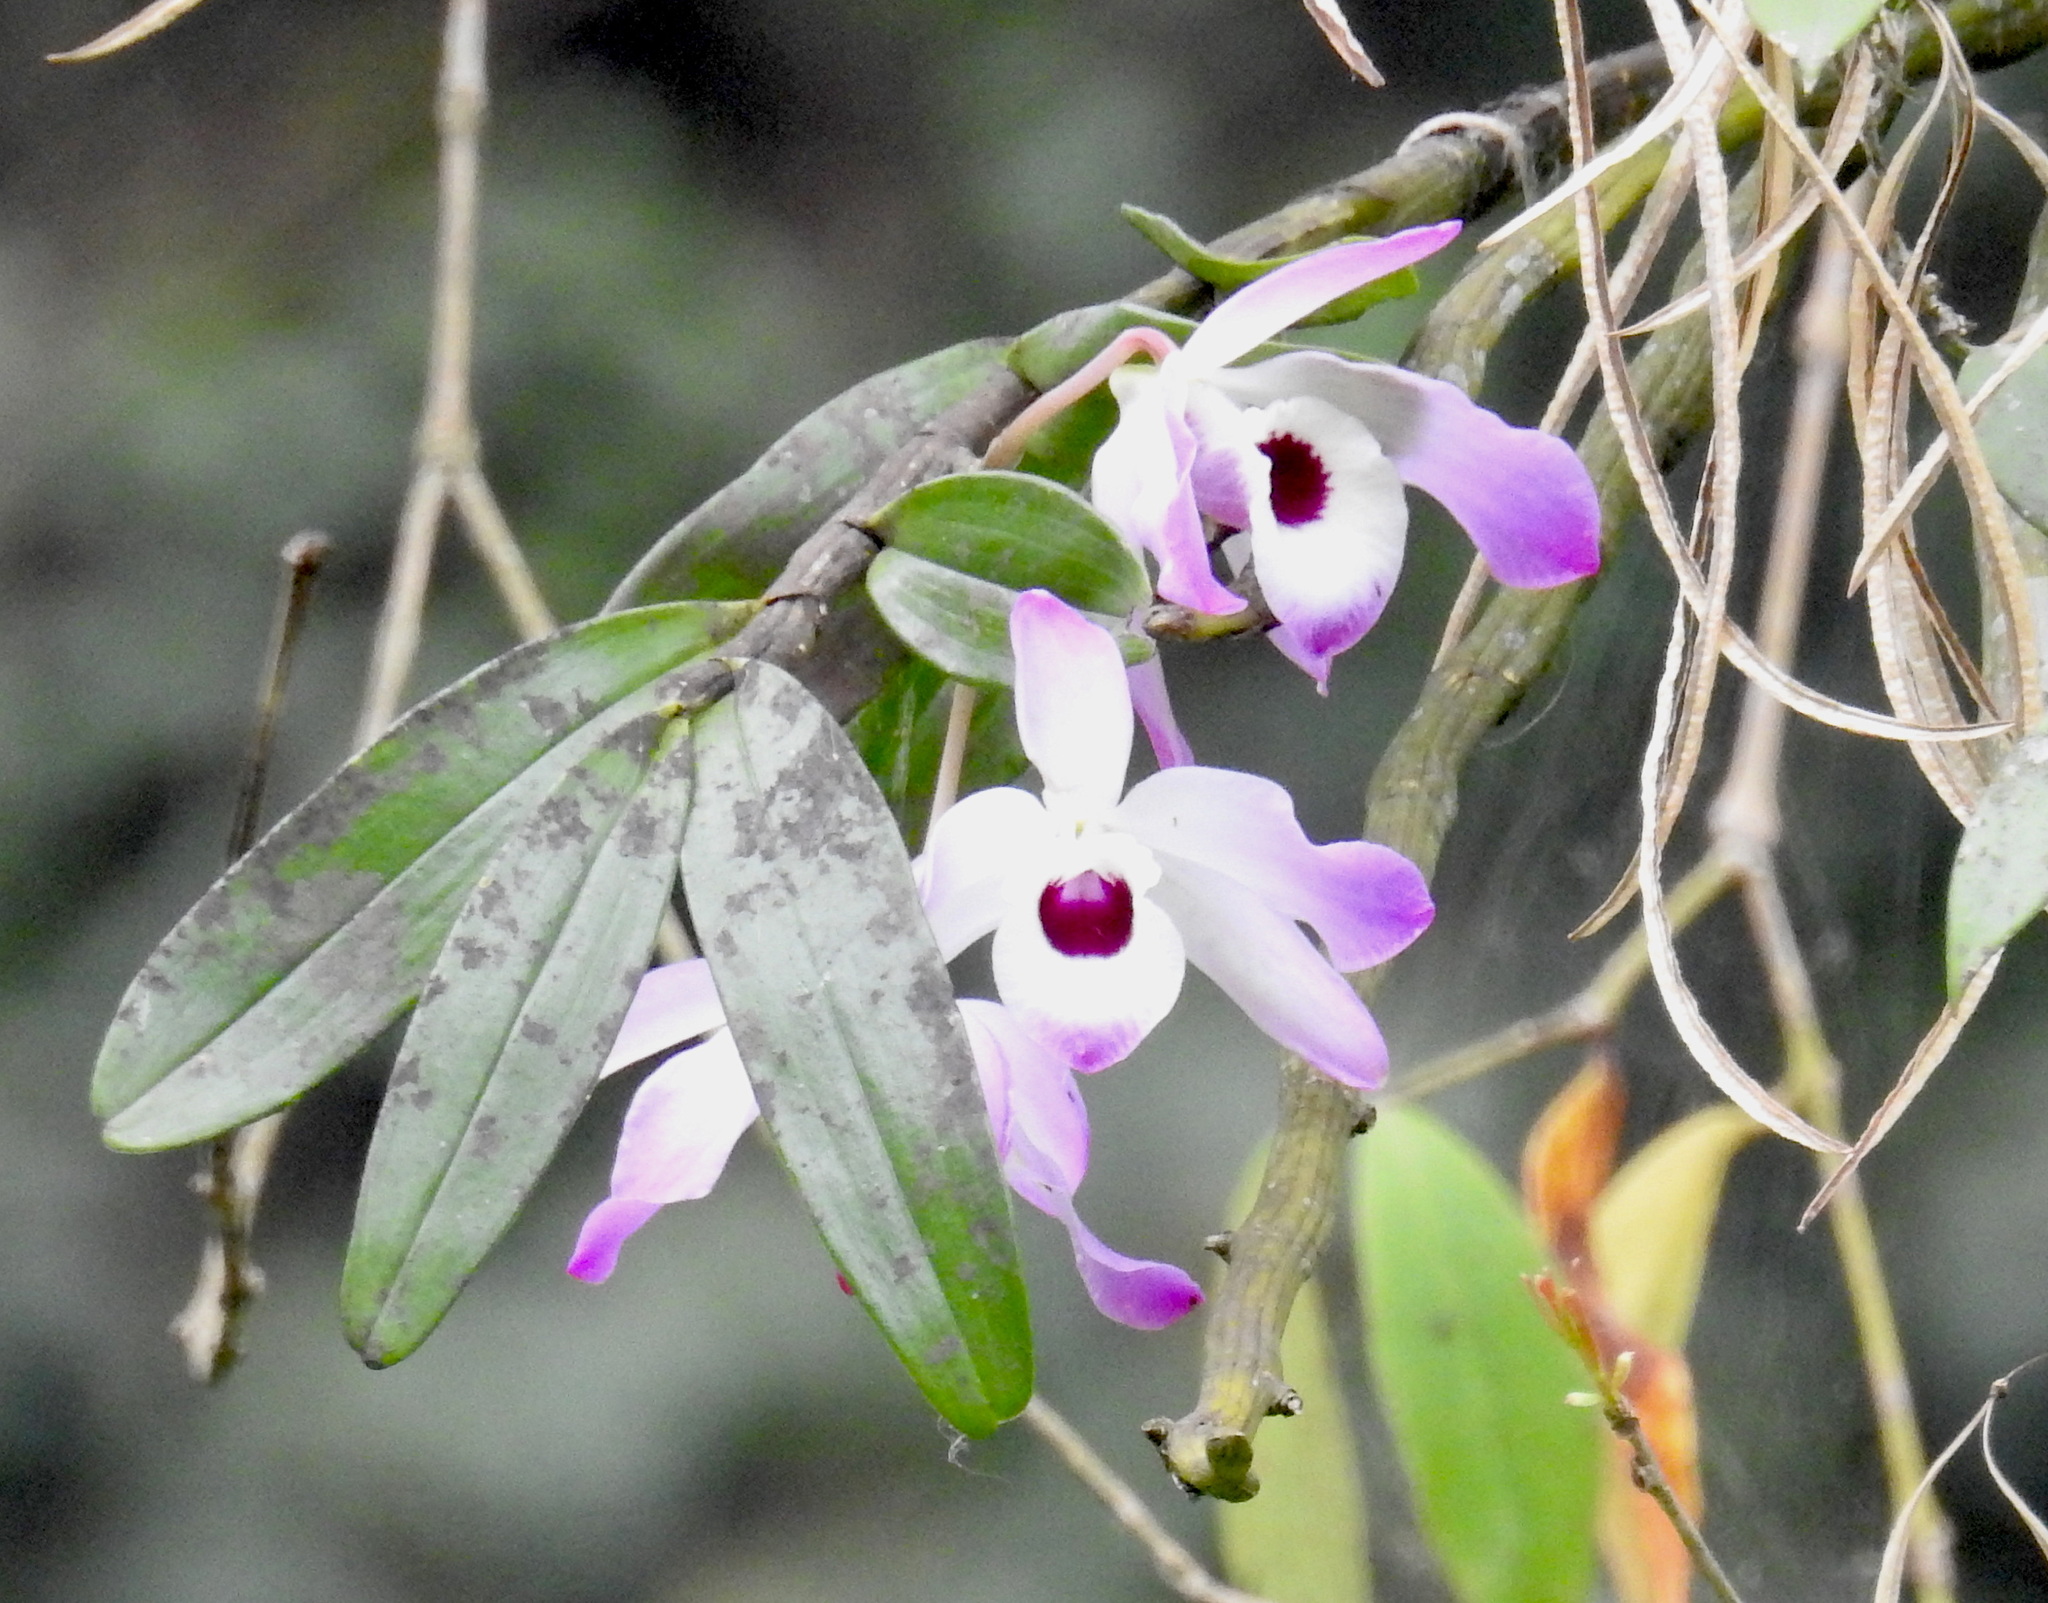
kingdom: Plantae
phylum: Tracheophyta
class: Liliopsida
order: Asparagales
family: Orchidaceae
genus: Dendrobium
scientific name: Dendrobium nobile
